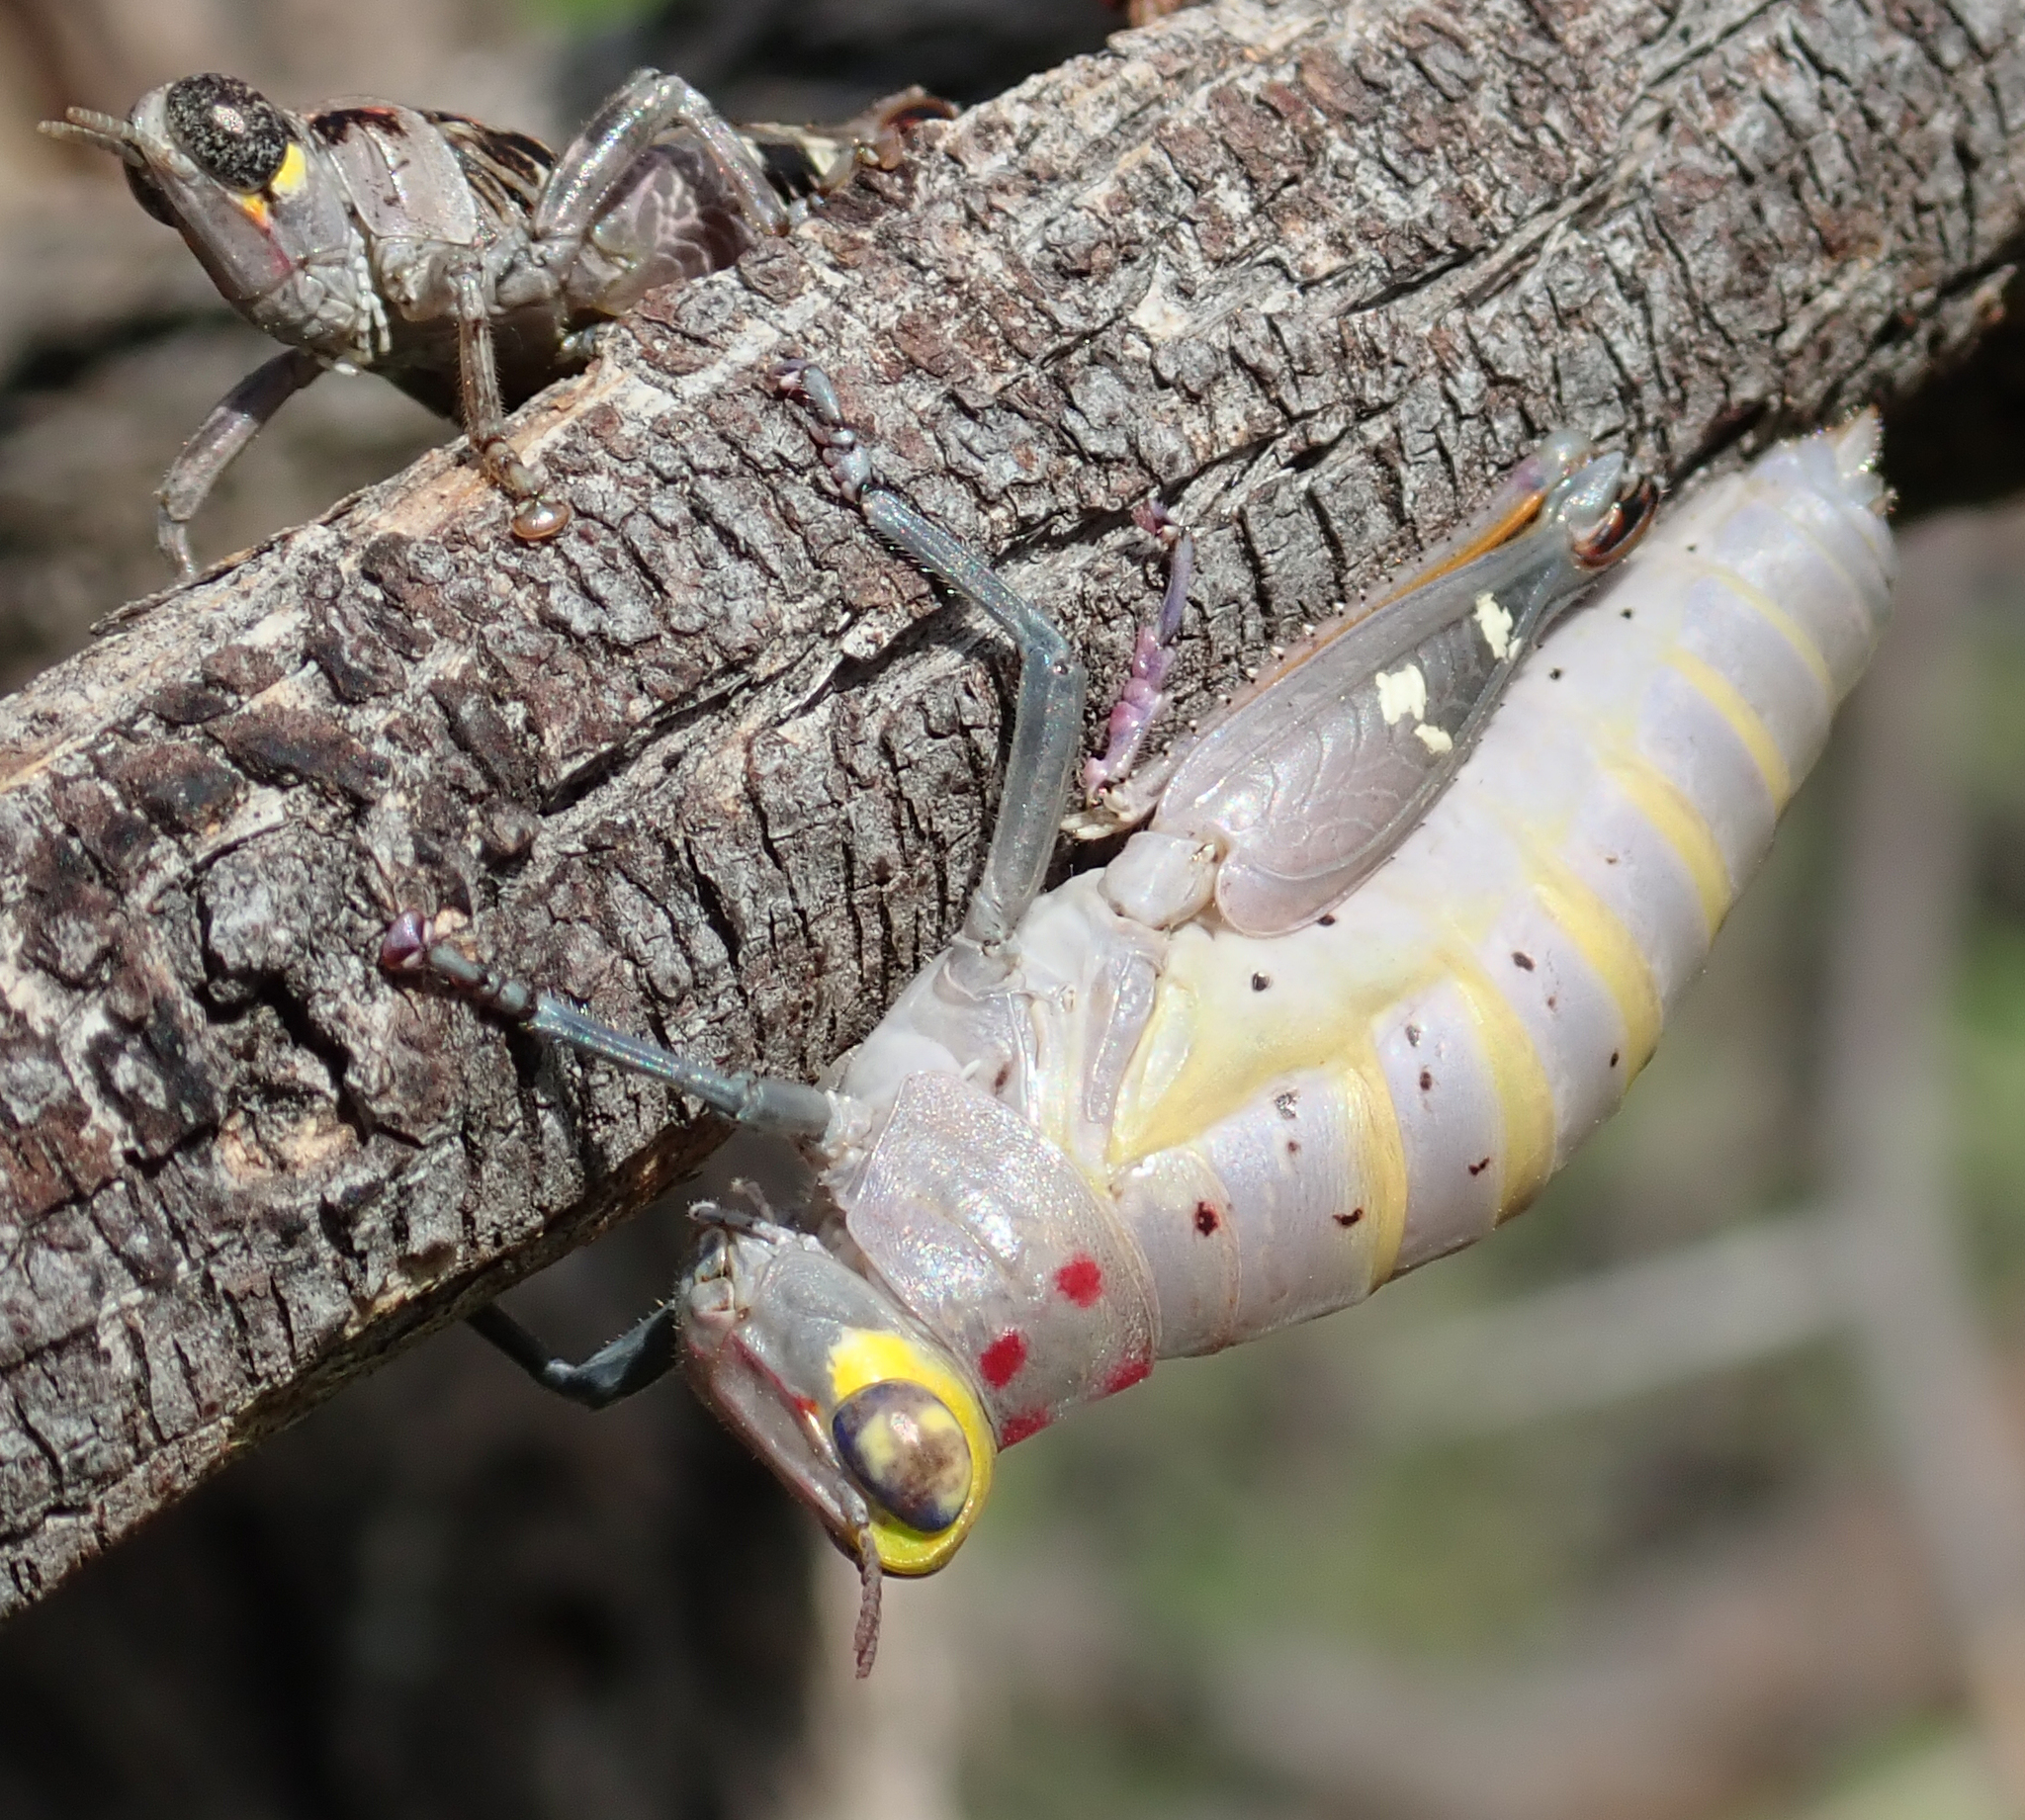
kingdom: Animalia
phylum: Arthropoda
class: Insecta
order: Orthoptera
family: Thericleidae
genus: Thericles
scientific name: Thericles obtusifrons
